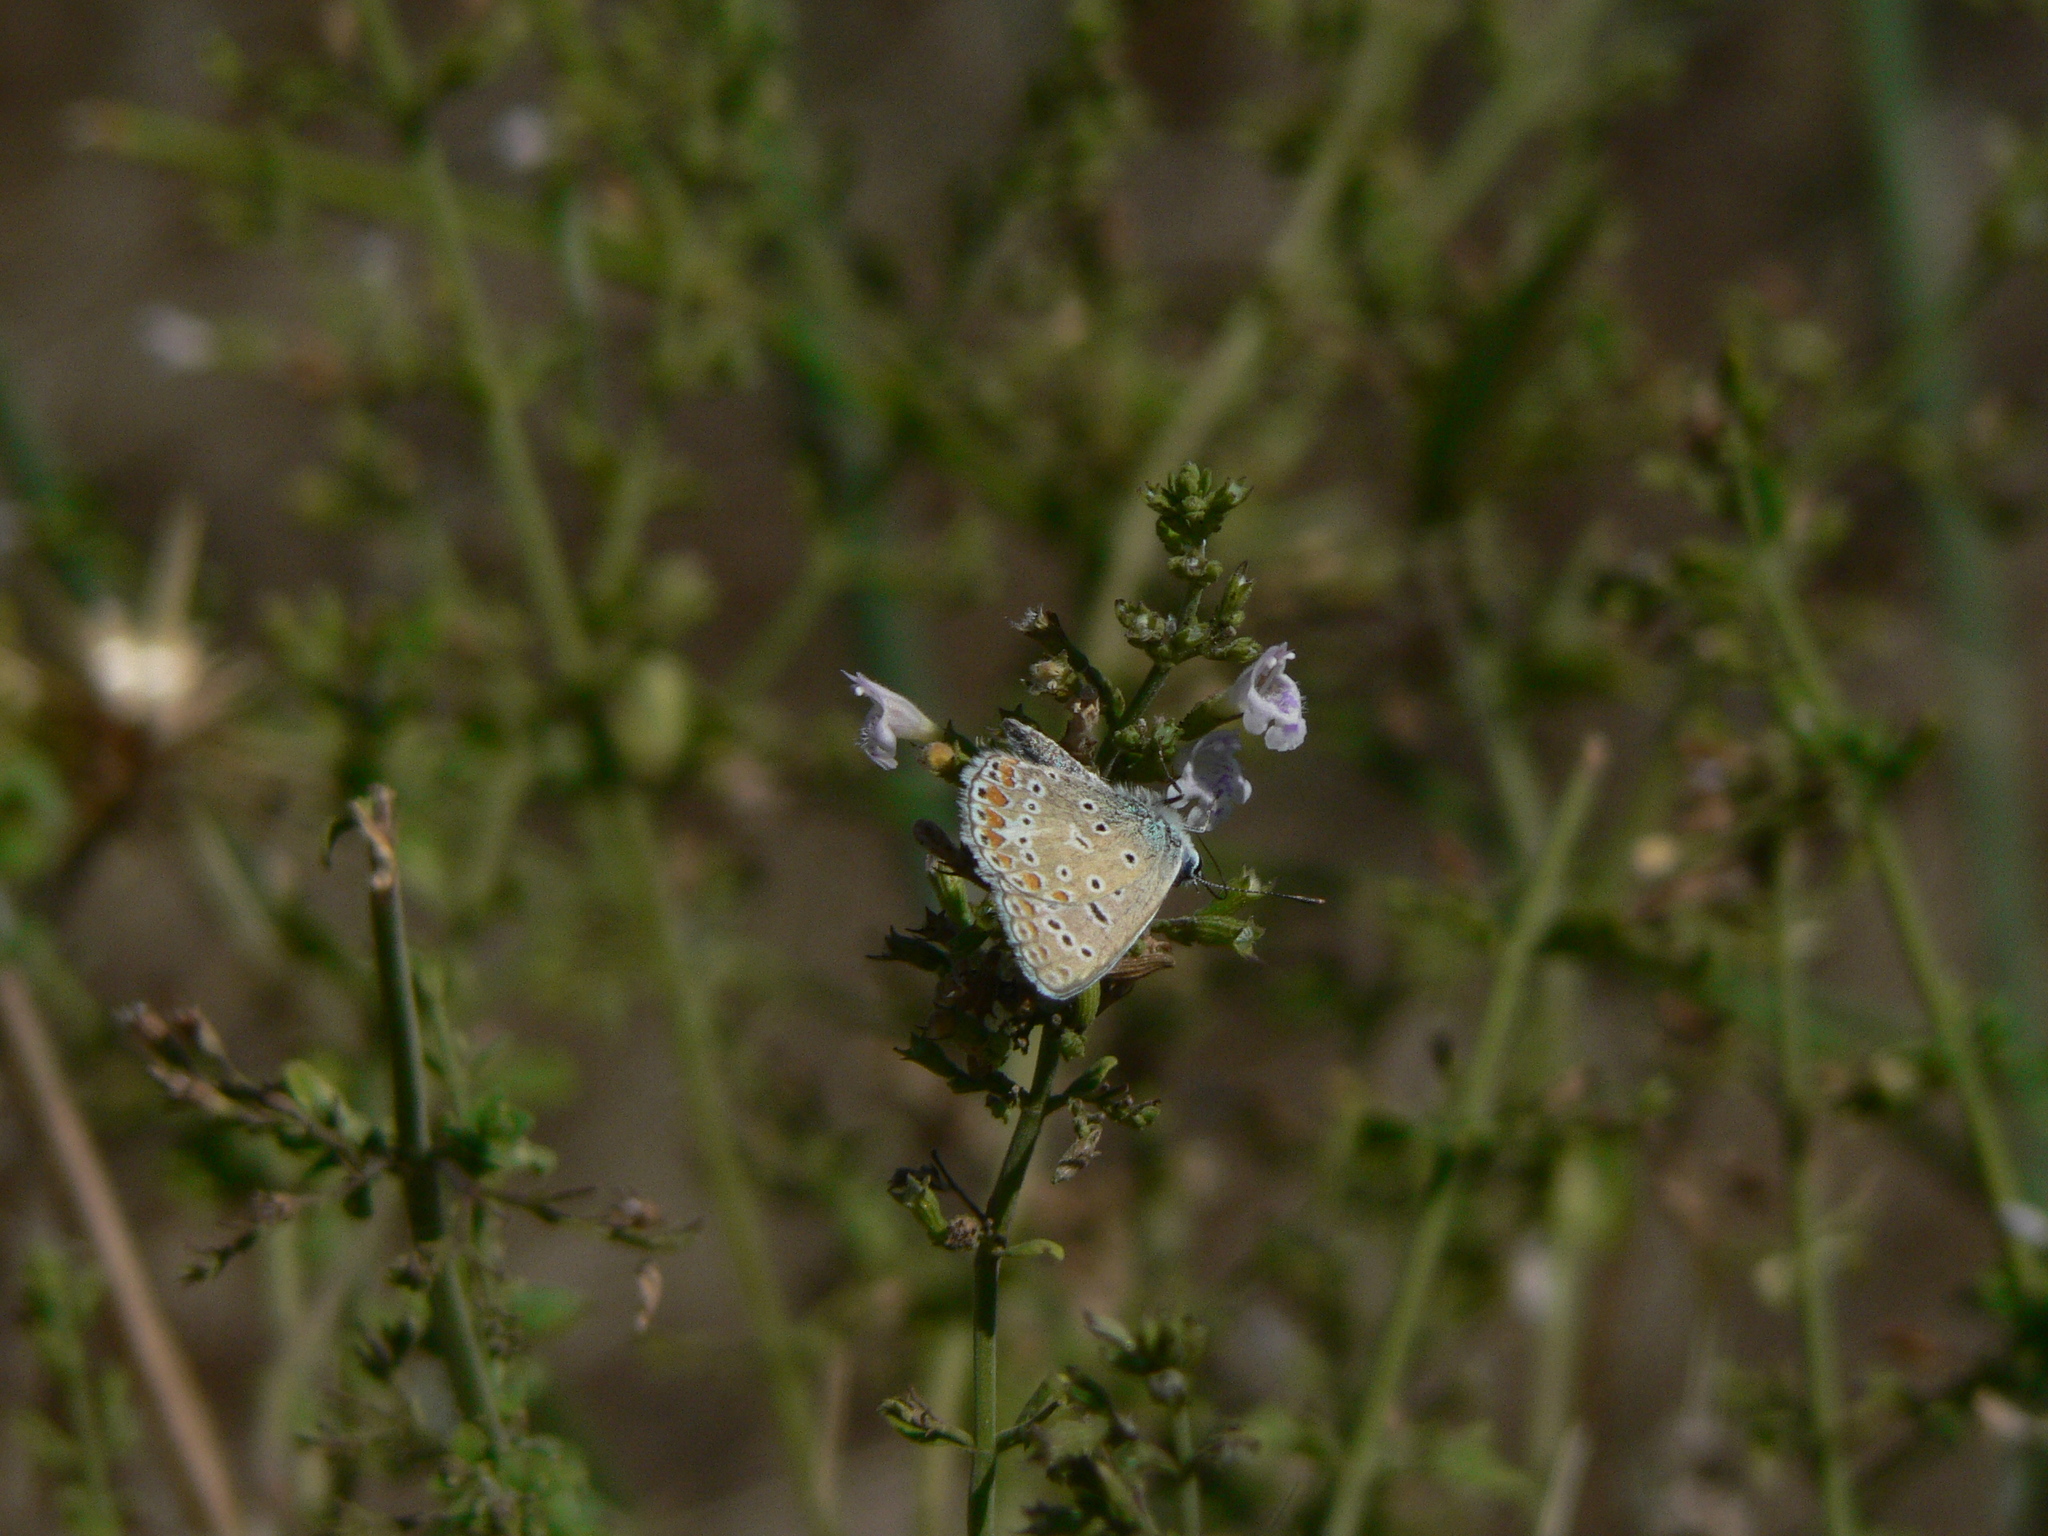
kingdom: Animalia
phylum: Arthropoda
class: Insecta
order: Lepidoptera
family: Lycaenidae
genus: Polyommatus
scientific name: Polyommatus icarus
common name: Common blue
